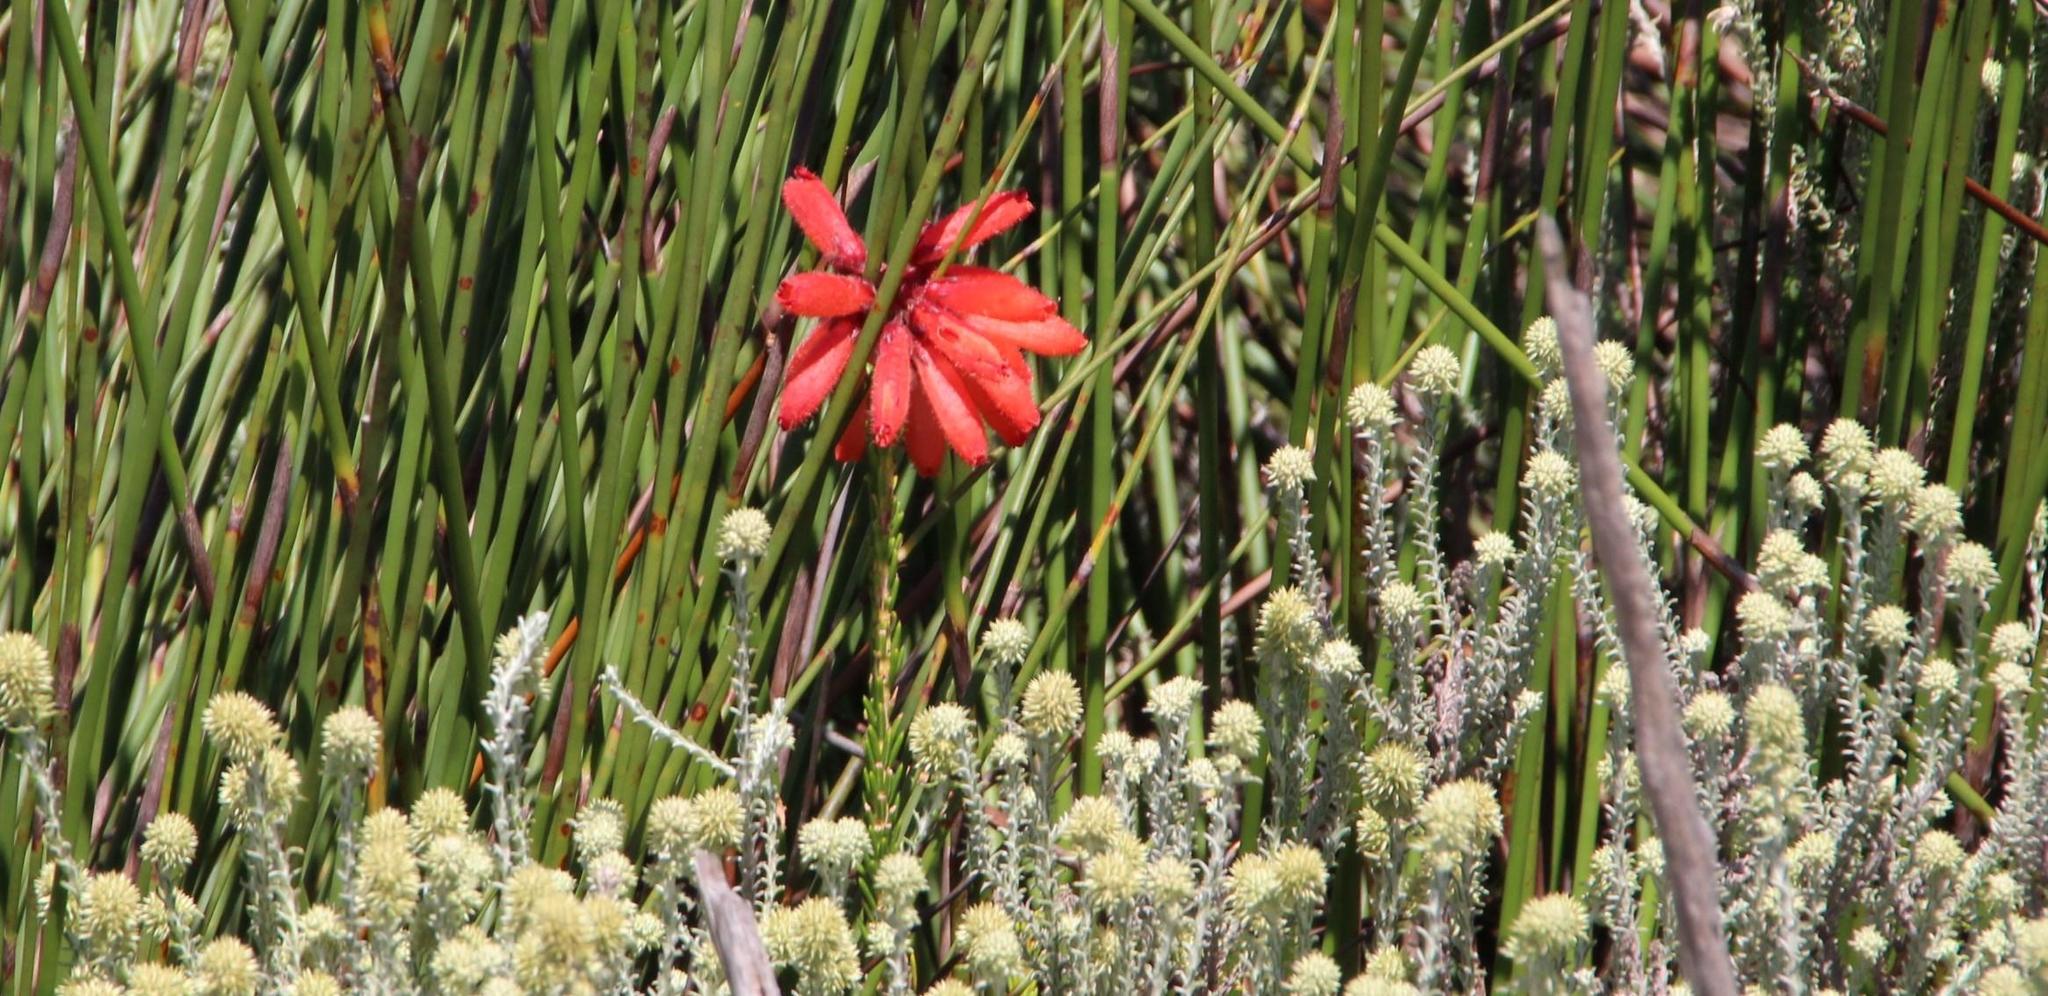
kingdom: Plantae
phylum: Tracheophyta
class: Magnoliopsida
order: Ericales
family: Ericaceae
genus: Erica
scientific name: Erica cerinthoides
